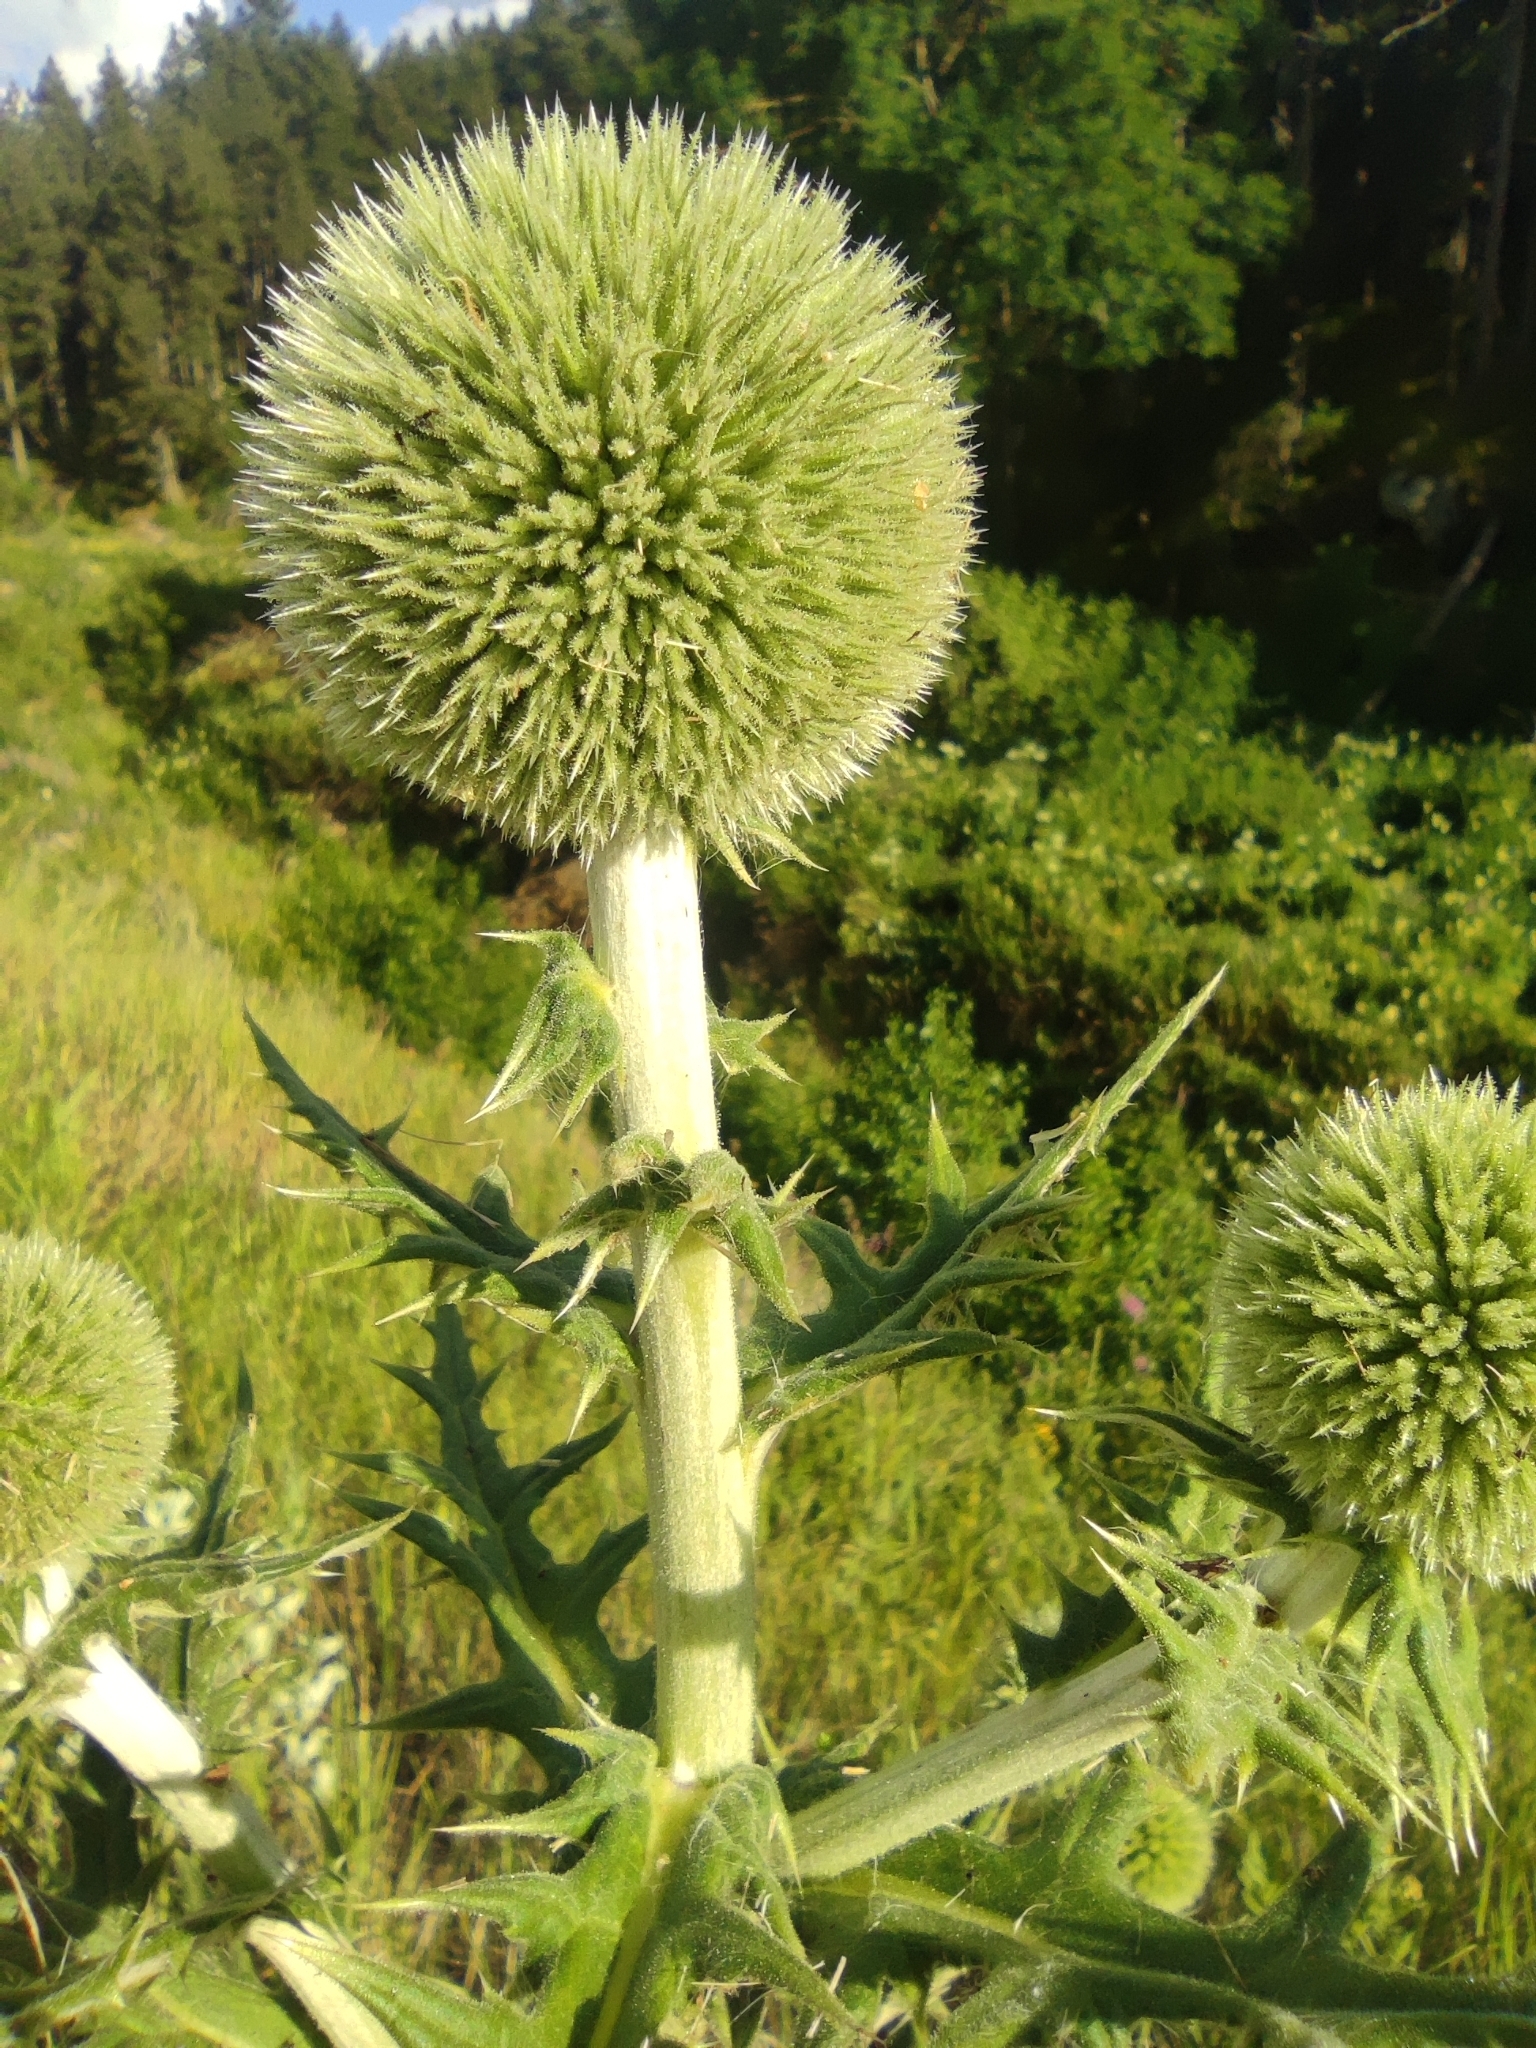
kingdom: Plantae
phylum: Tracheophyta
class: Magnoliopsida
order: Asterales
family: Asteraceae
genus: Echinops
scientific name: Echinops sphaerocephalus
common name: Glandular globe-thistle
